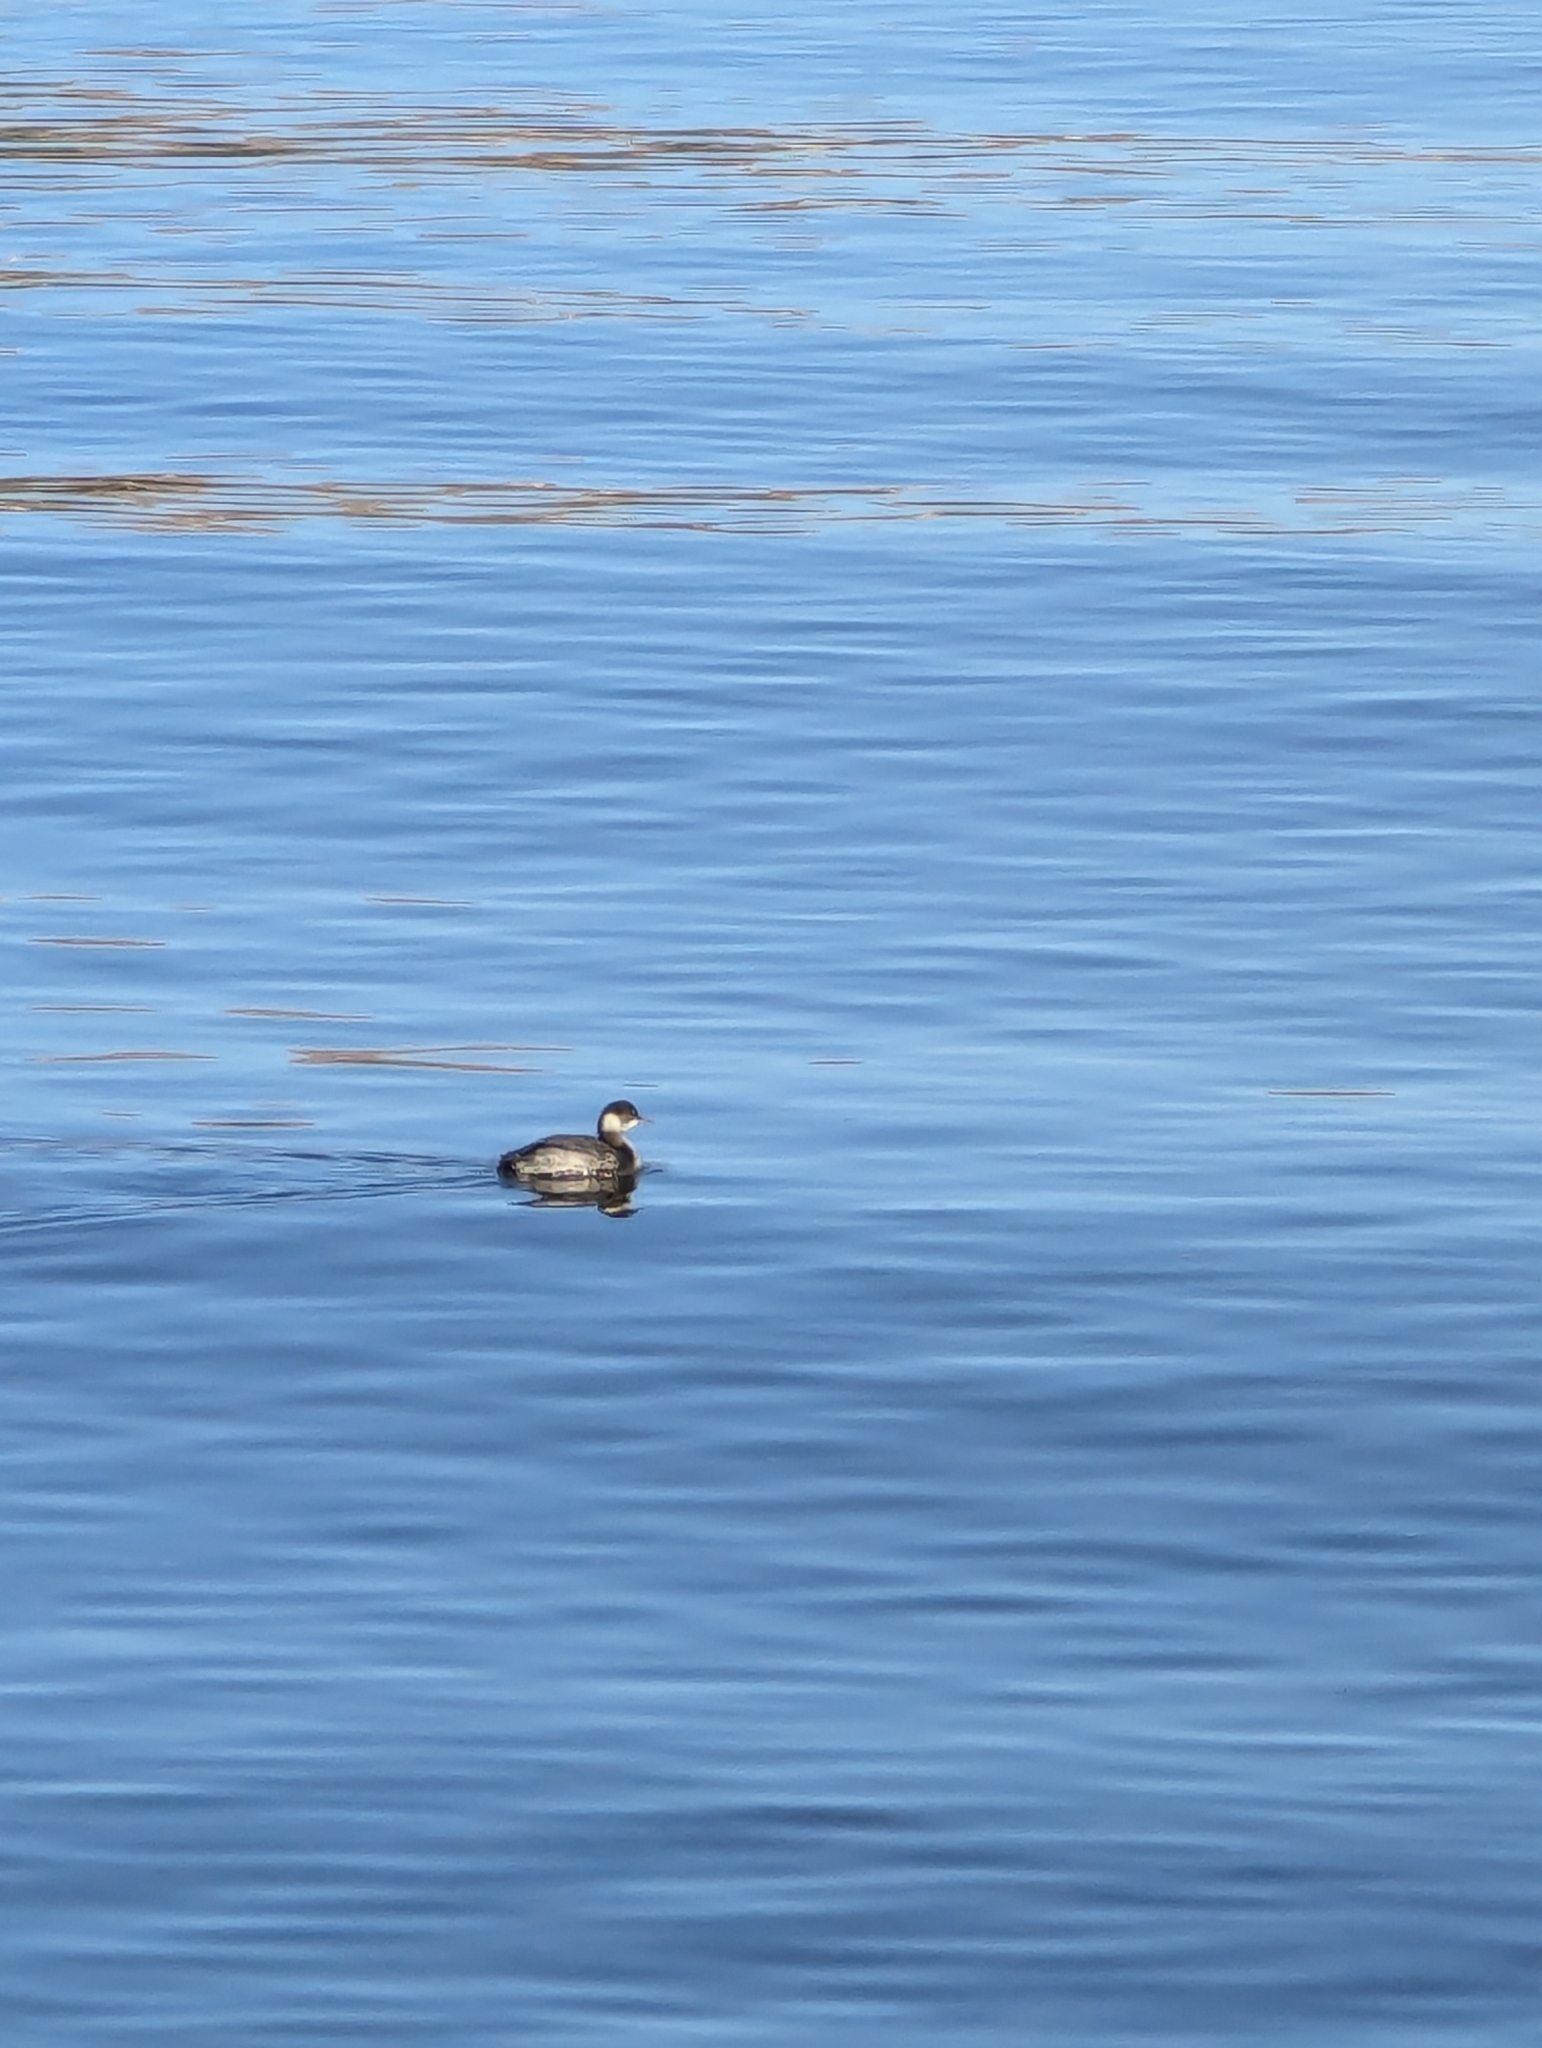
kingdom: Animalia
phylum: Chordata
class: Aves
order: Podicipediformes
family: Podicipedidae
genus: Podiceps
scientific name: Podiceps nigricollis
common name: Black-necked grebe
